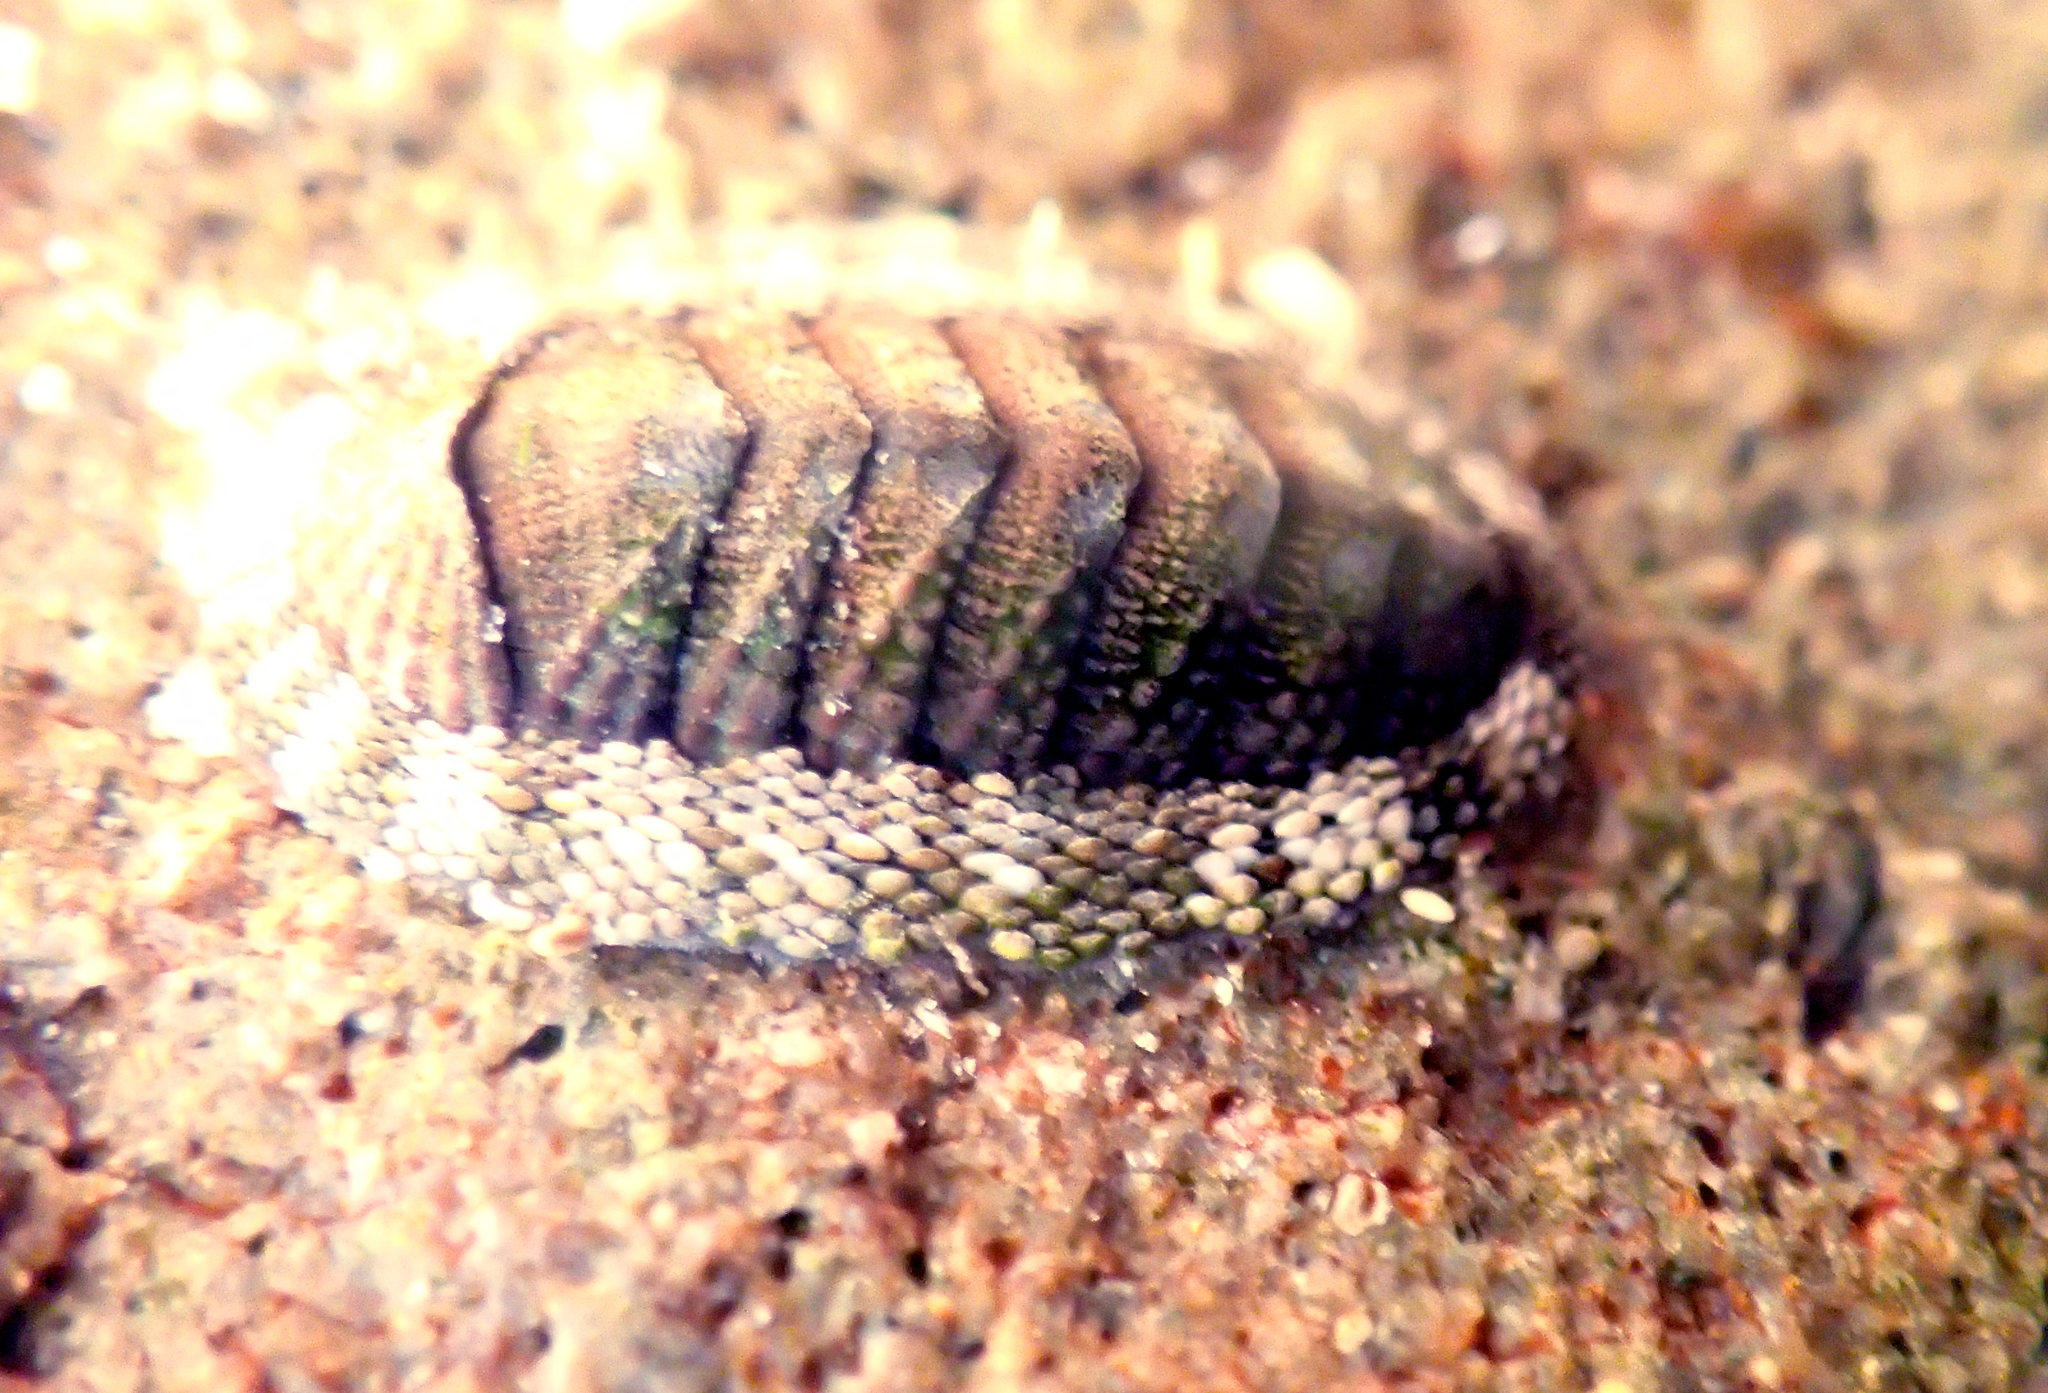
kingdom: Animalia
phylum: Mollusca
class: Polyplacophora
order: Chitonida
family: Chitonidae
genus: Sypharochiton
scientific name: Sypharochiton pelliserpentis
